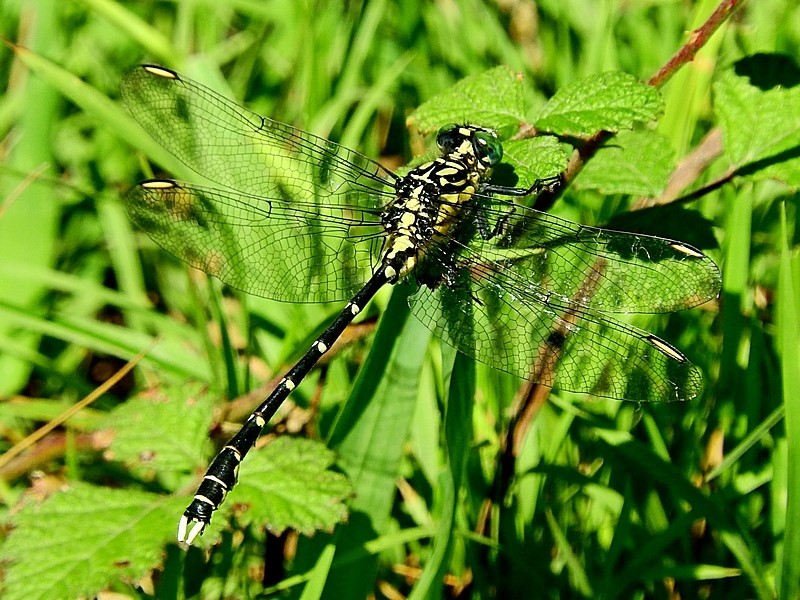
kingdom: Animalia
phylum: Arthropoda
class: Insecta
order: Odonata
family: Gomphidae
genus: Hemigomphus
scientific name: Hemigomphus gouldii
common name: Southern vicetail
